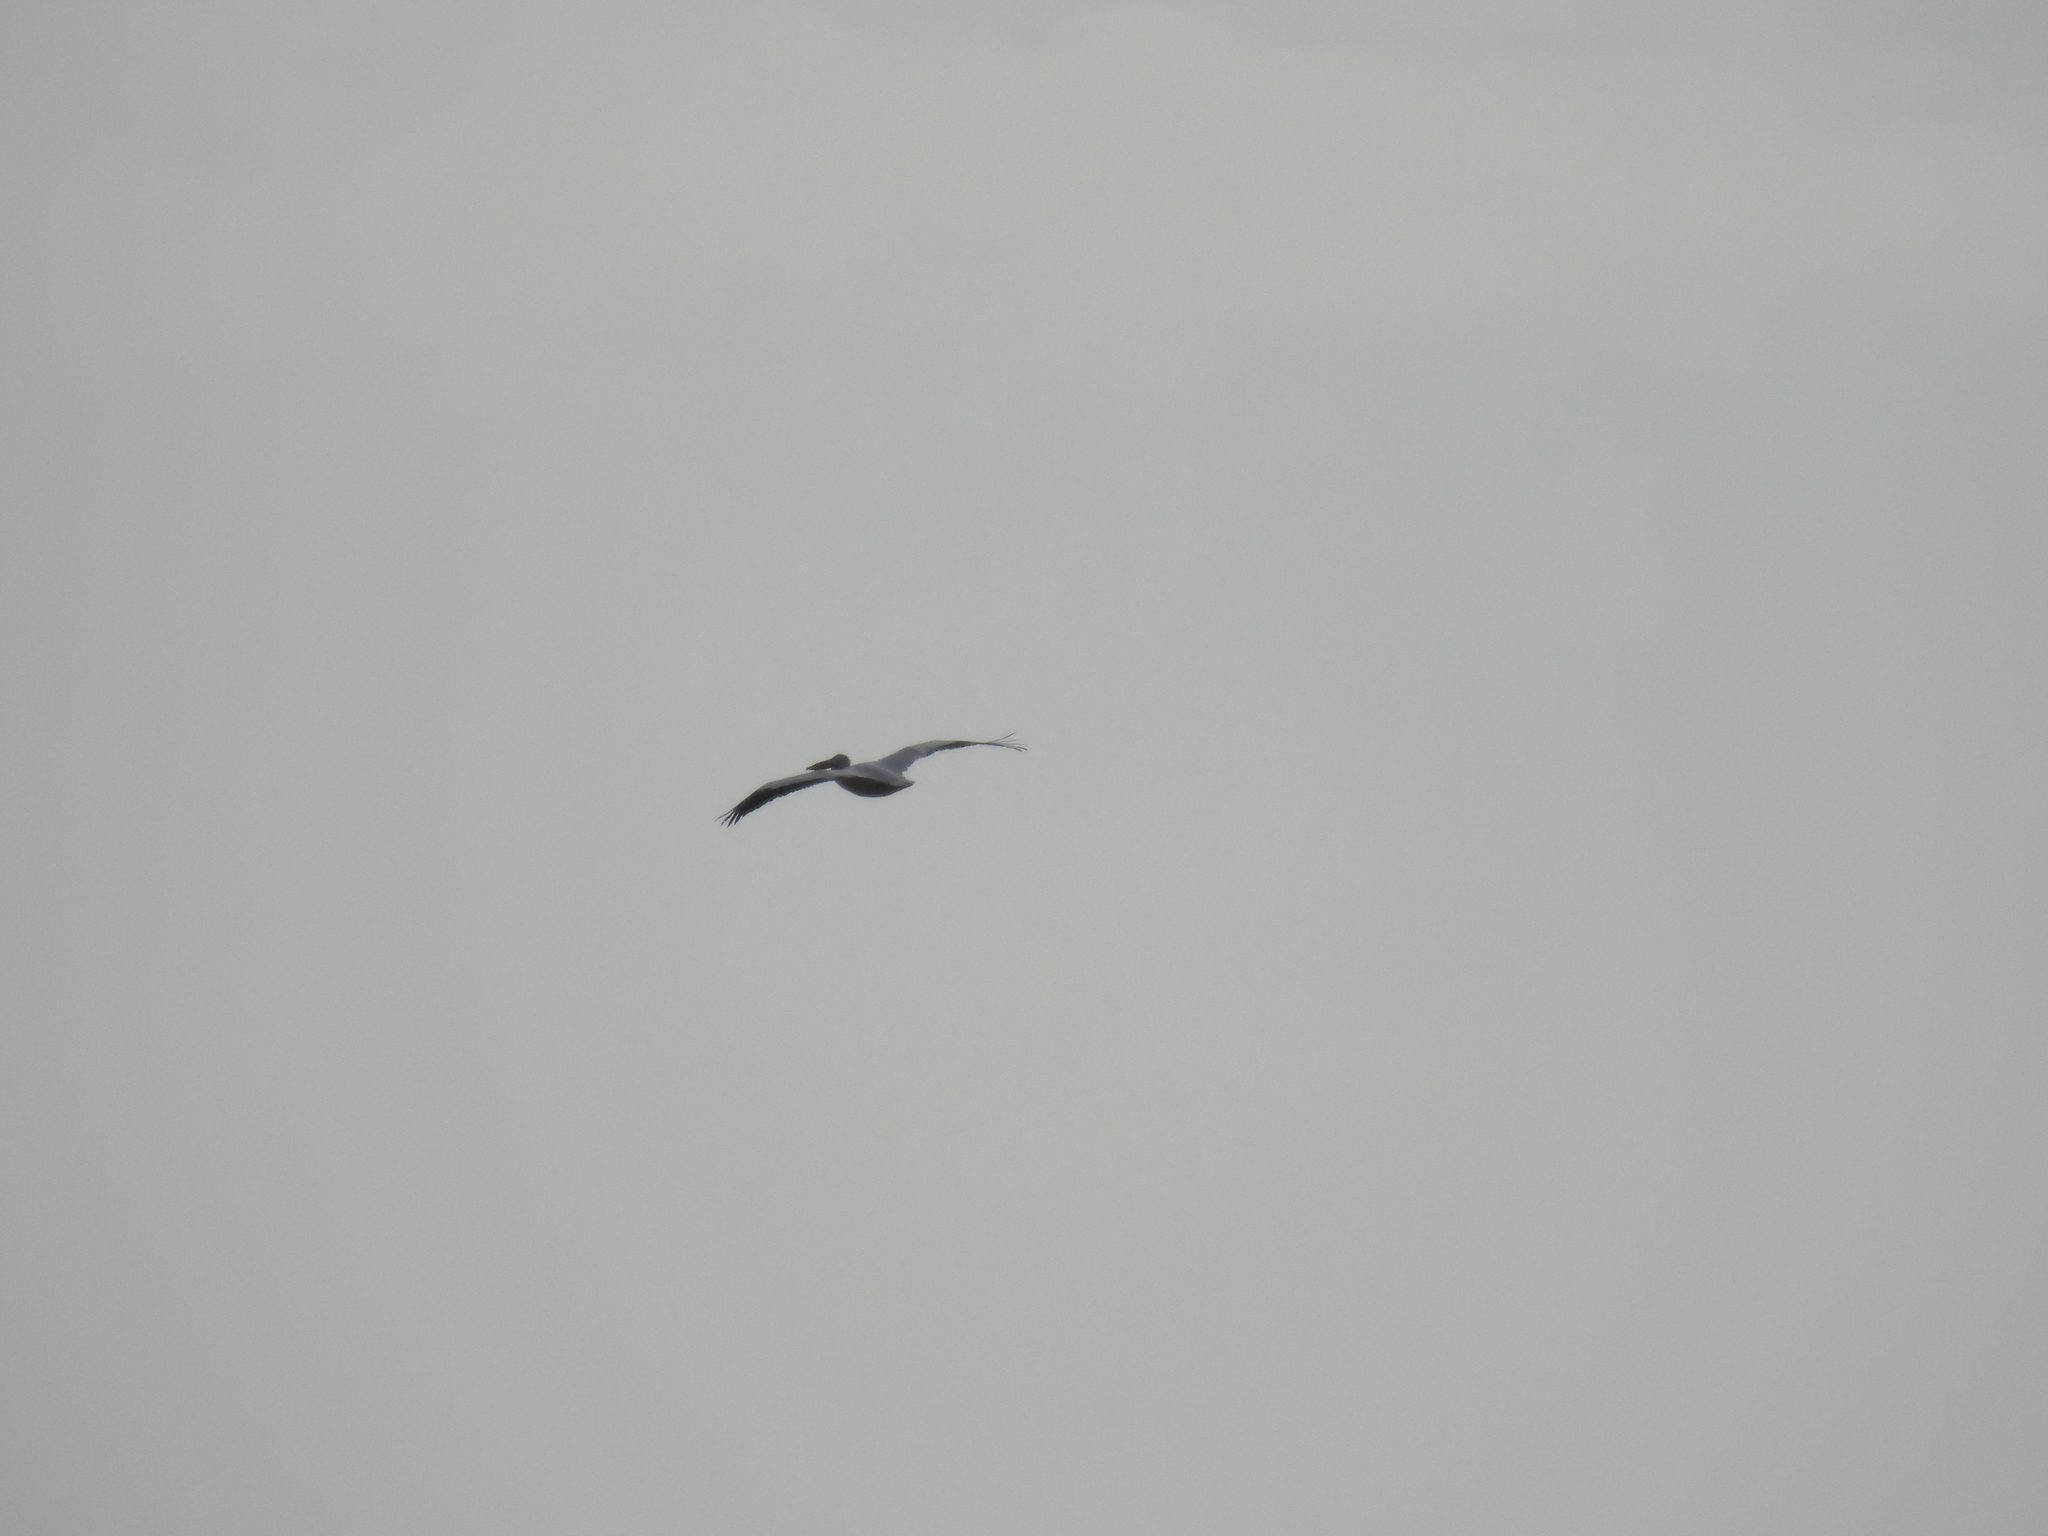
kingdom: Animalia
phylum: Chordata
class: Aves
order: Pelecaniformes
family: Pelecanidae
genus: Pelecanus
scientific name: Pelecanus erythrorhynchos
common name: American white pelican
